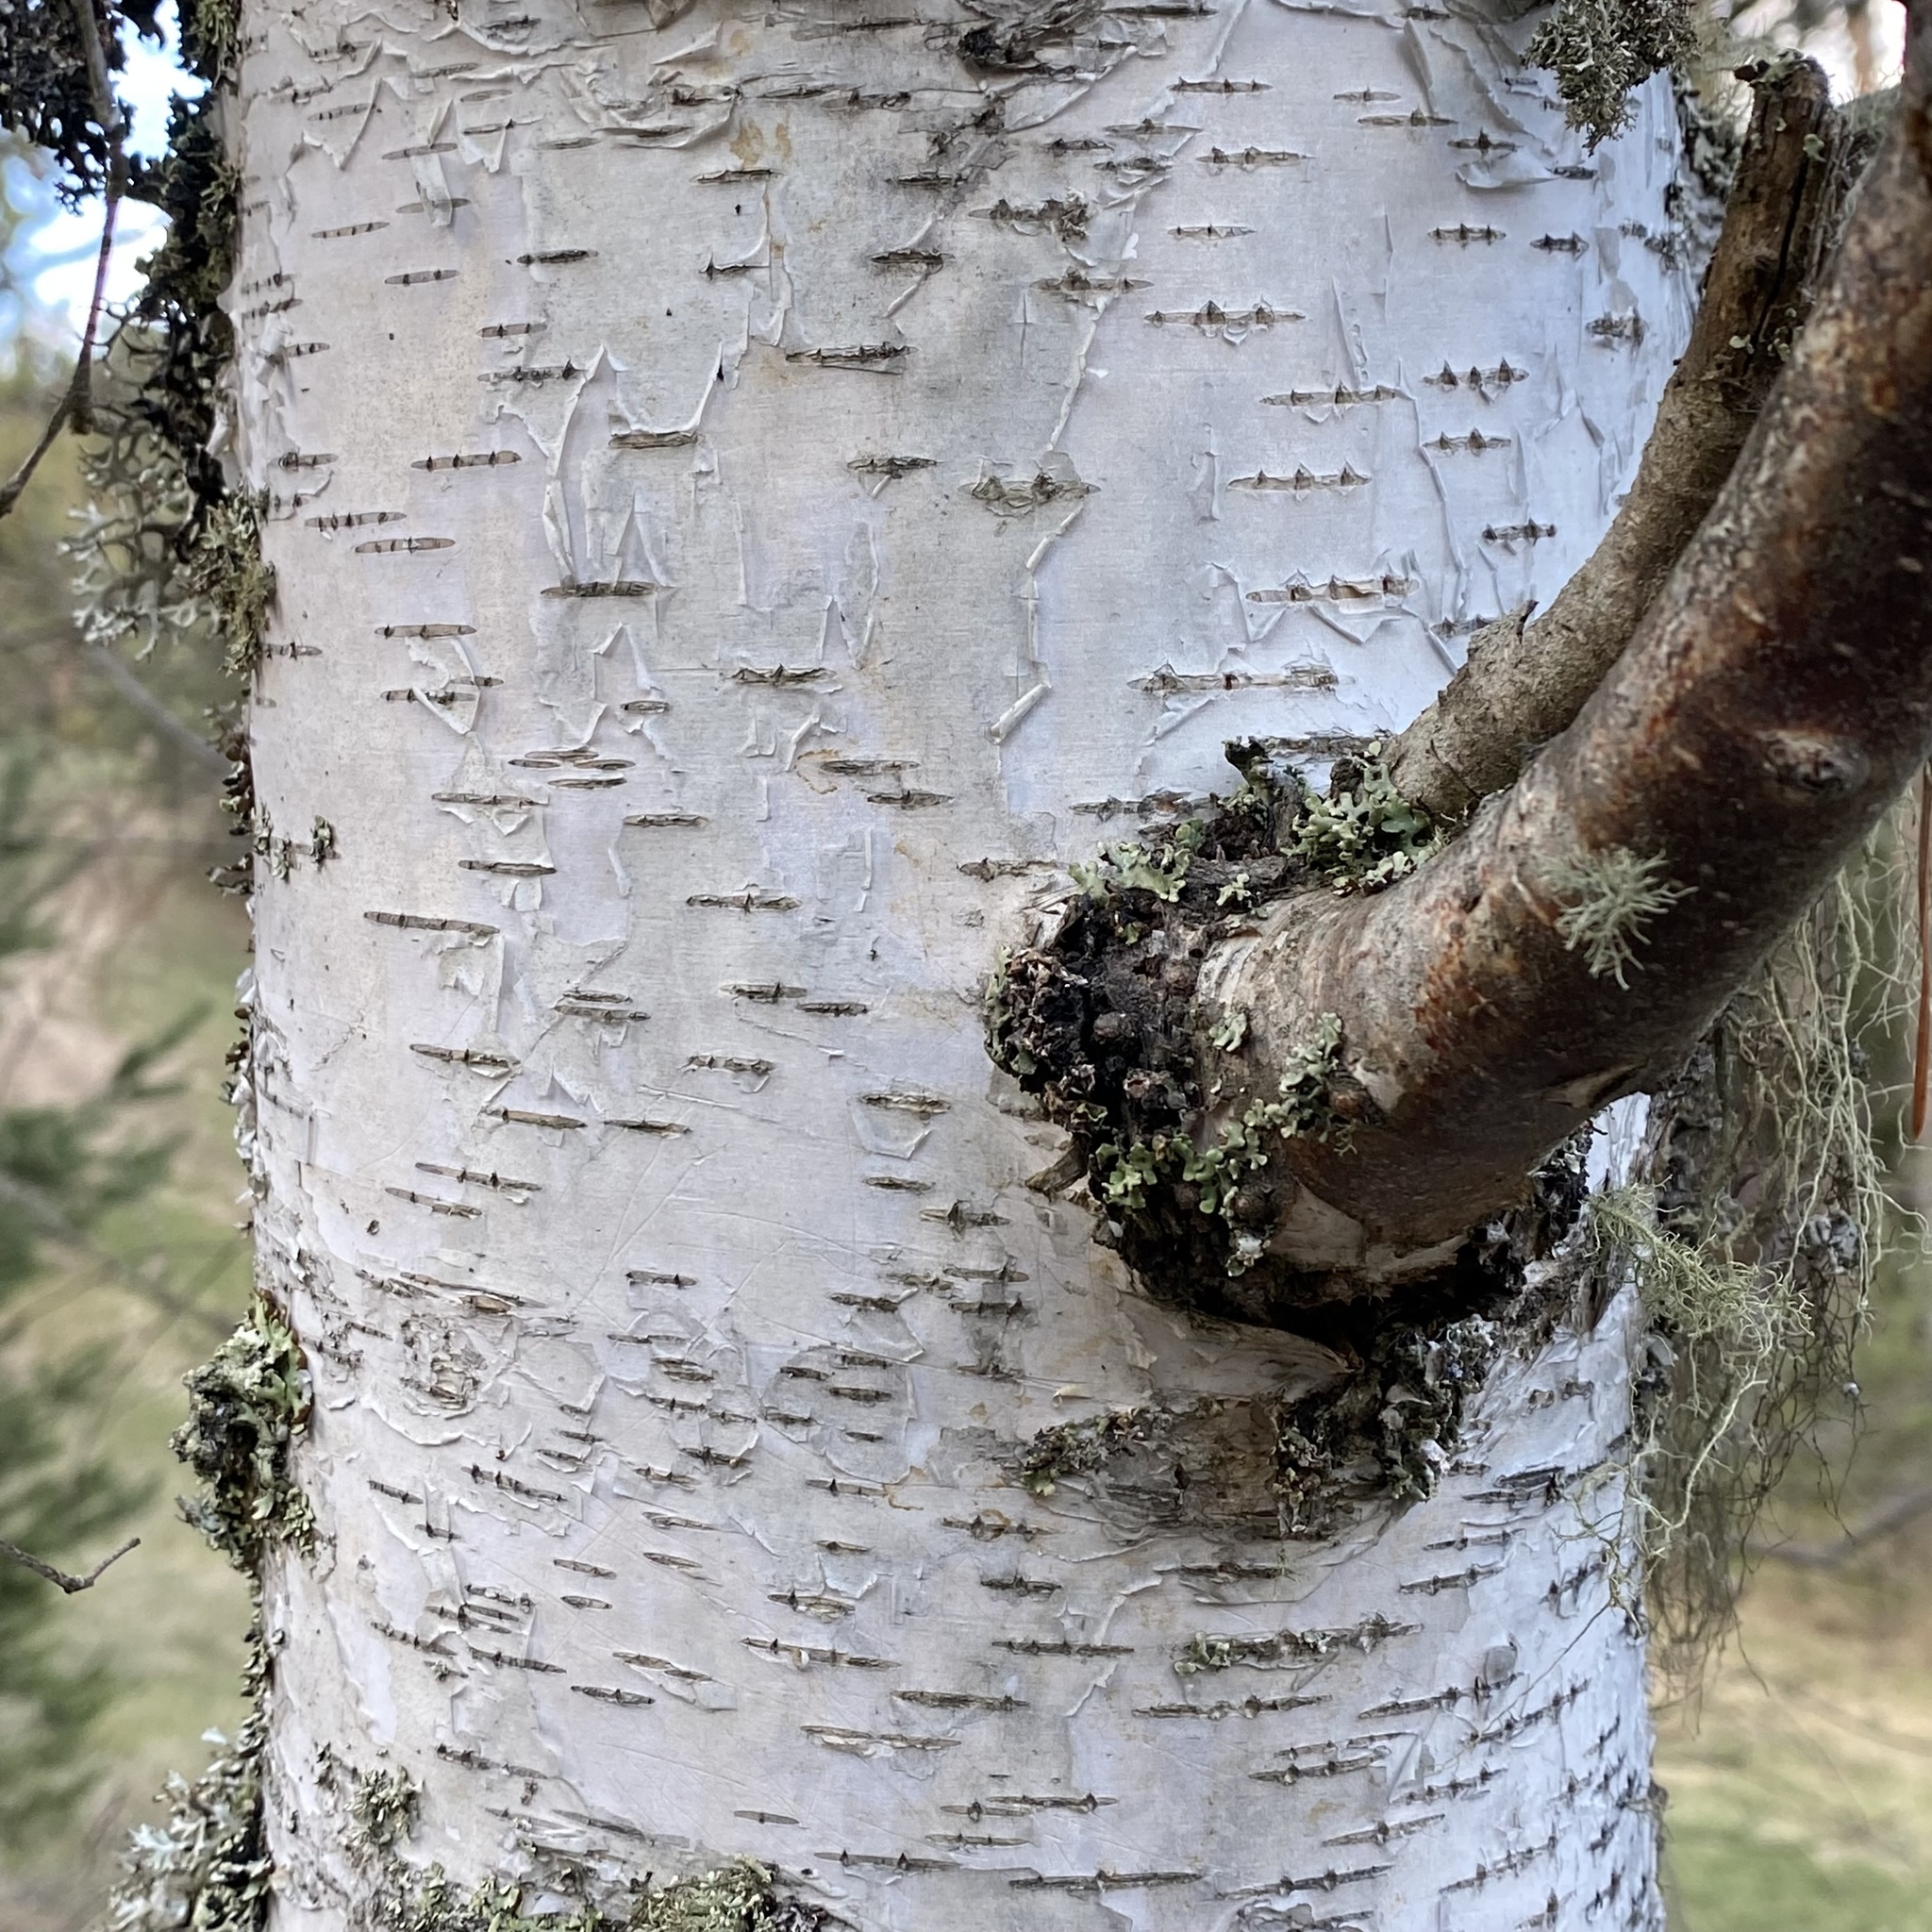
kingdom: Plantae
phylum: Tracheophyta
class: Magnoliopsida
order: Fagales
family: Betulaceae
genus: Betula
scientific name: Betula pendula
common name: Silver birch
